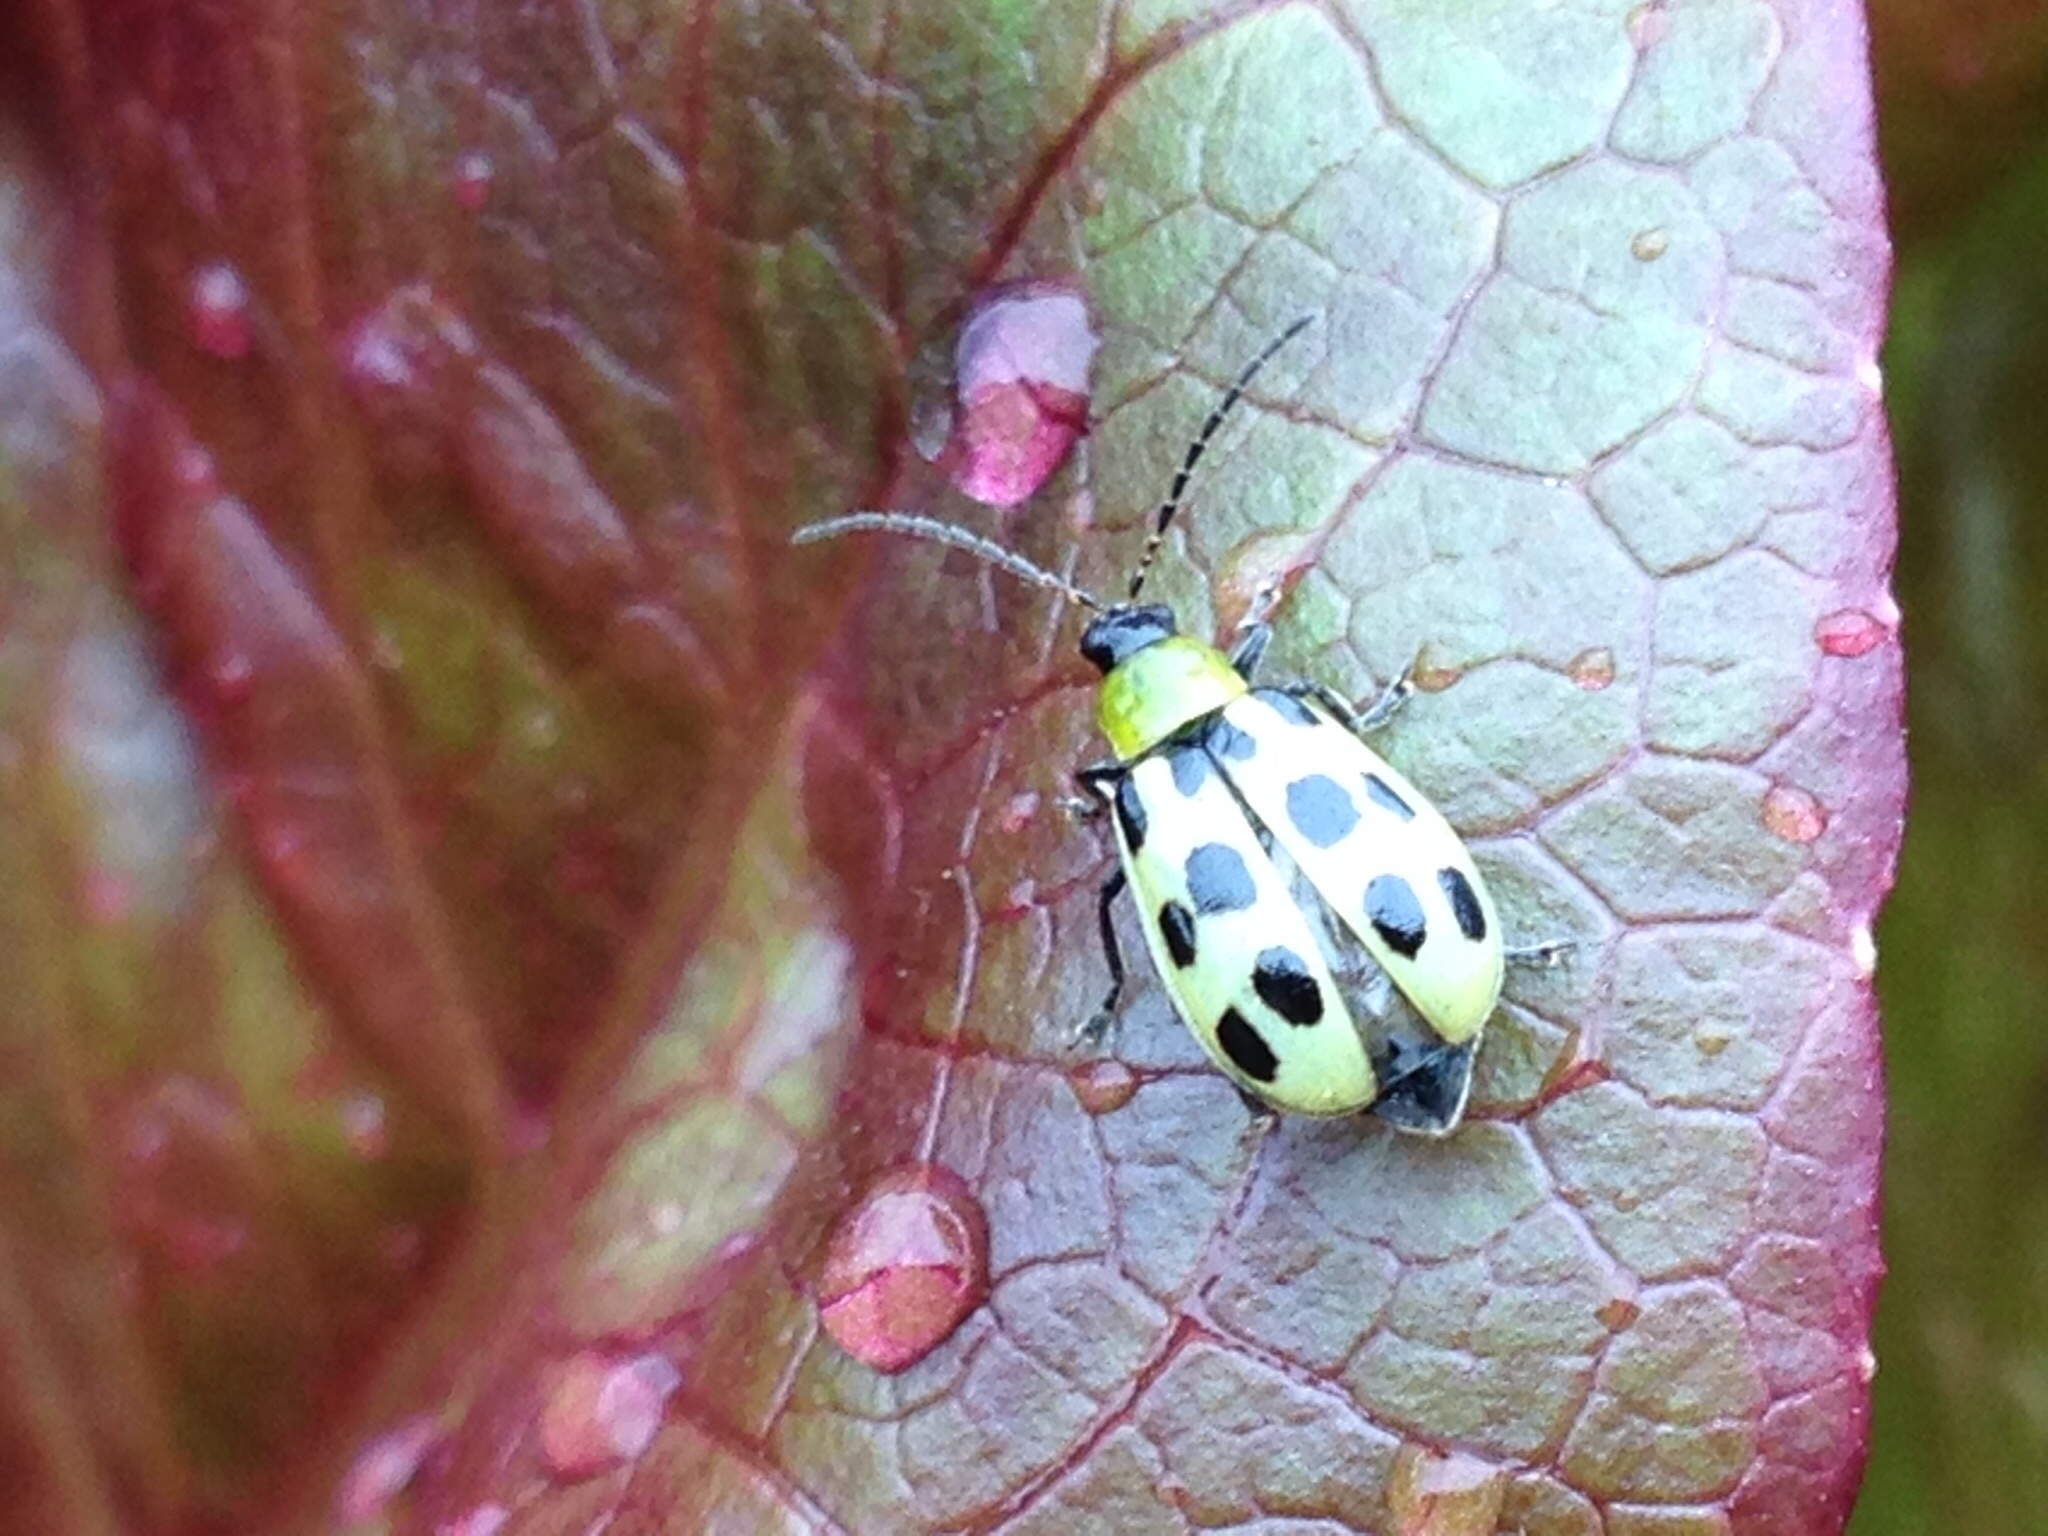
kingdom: Animalia
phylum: Arthropoda
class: Insecta
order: Coleoptera
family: Chrysomelidae
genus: Diabrotica
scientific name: Diabrotica undecimpunctata
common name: Spotted cucumber beetle
